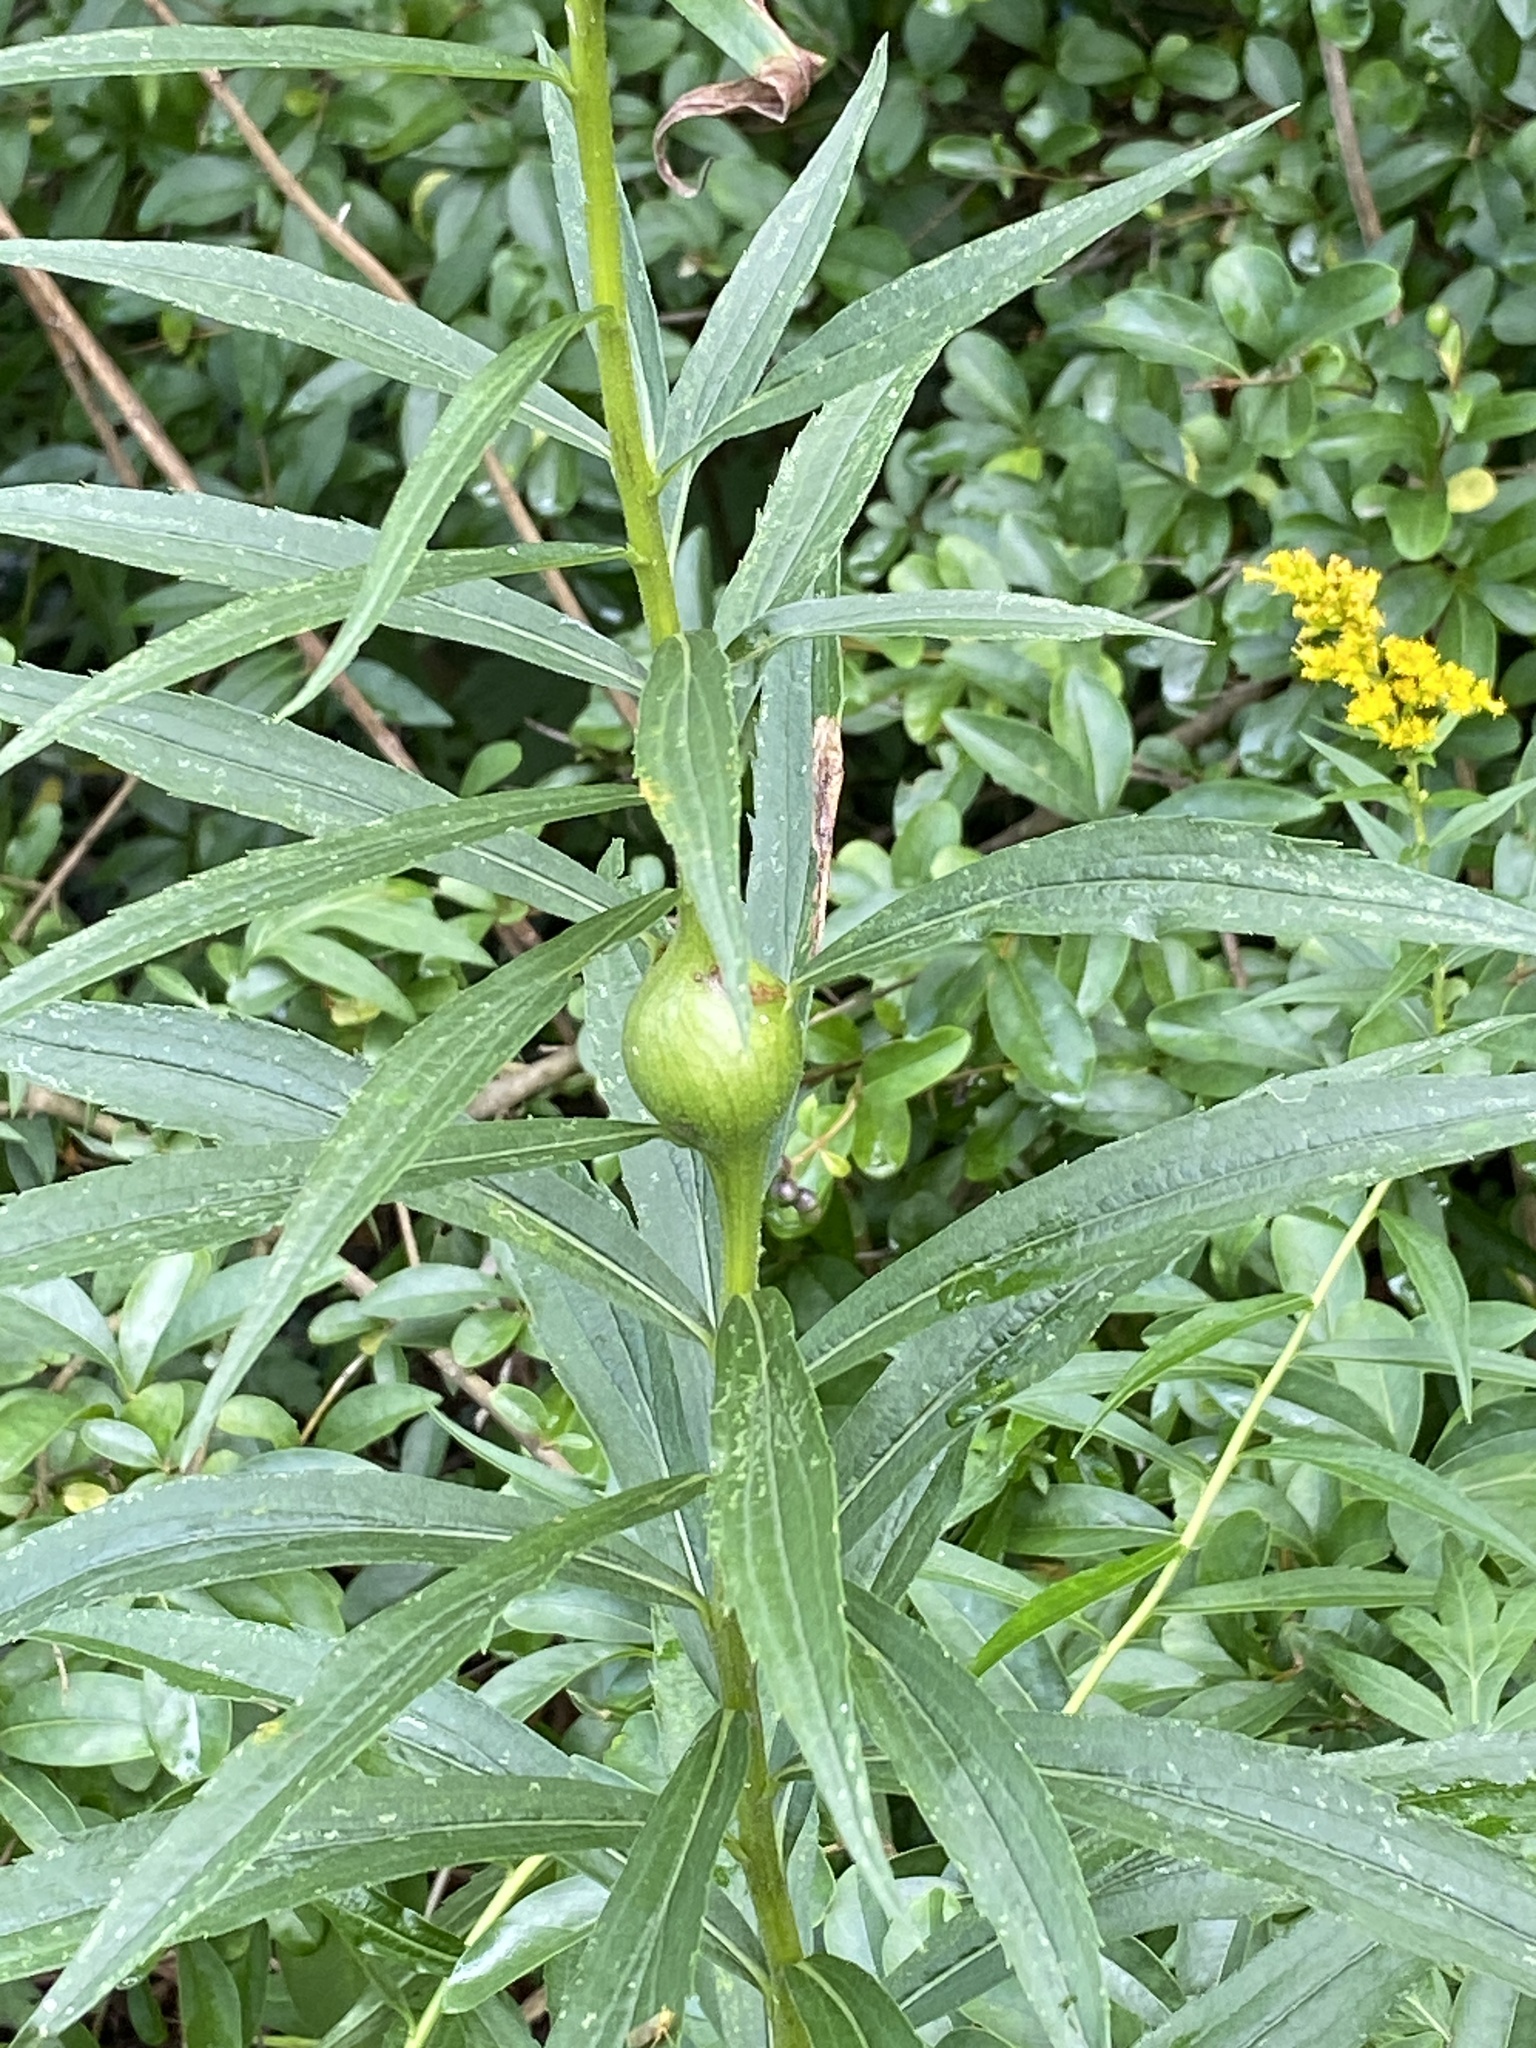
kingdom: Animalia
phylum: Arthropoda
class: Insecta
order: Diptera
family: Tephritidae
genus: Eurosta
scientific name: Eurosta solidaginis
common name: Goldenrod gall fly
